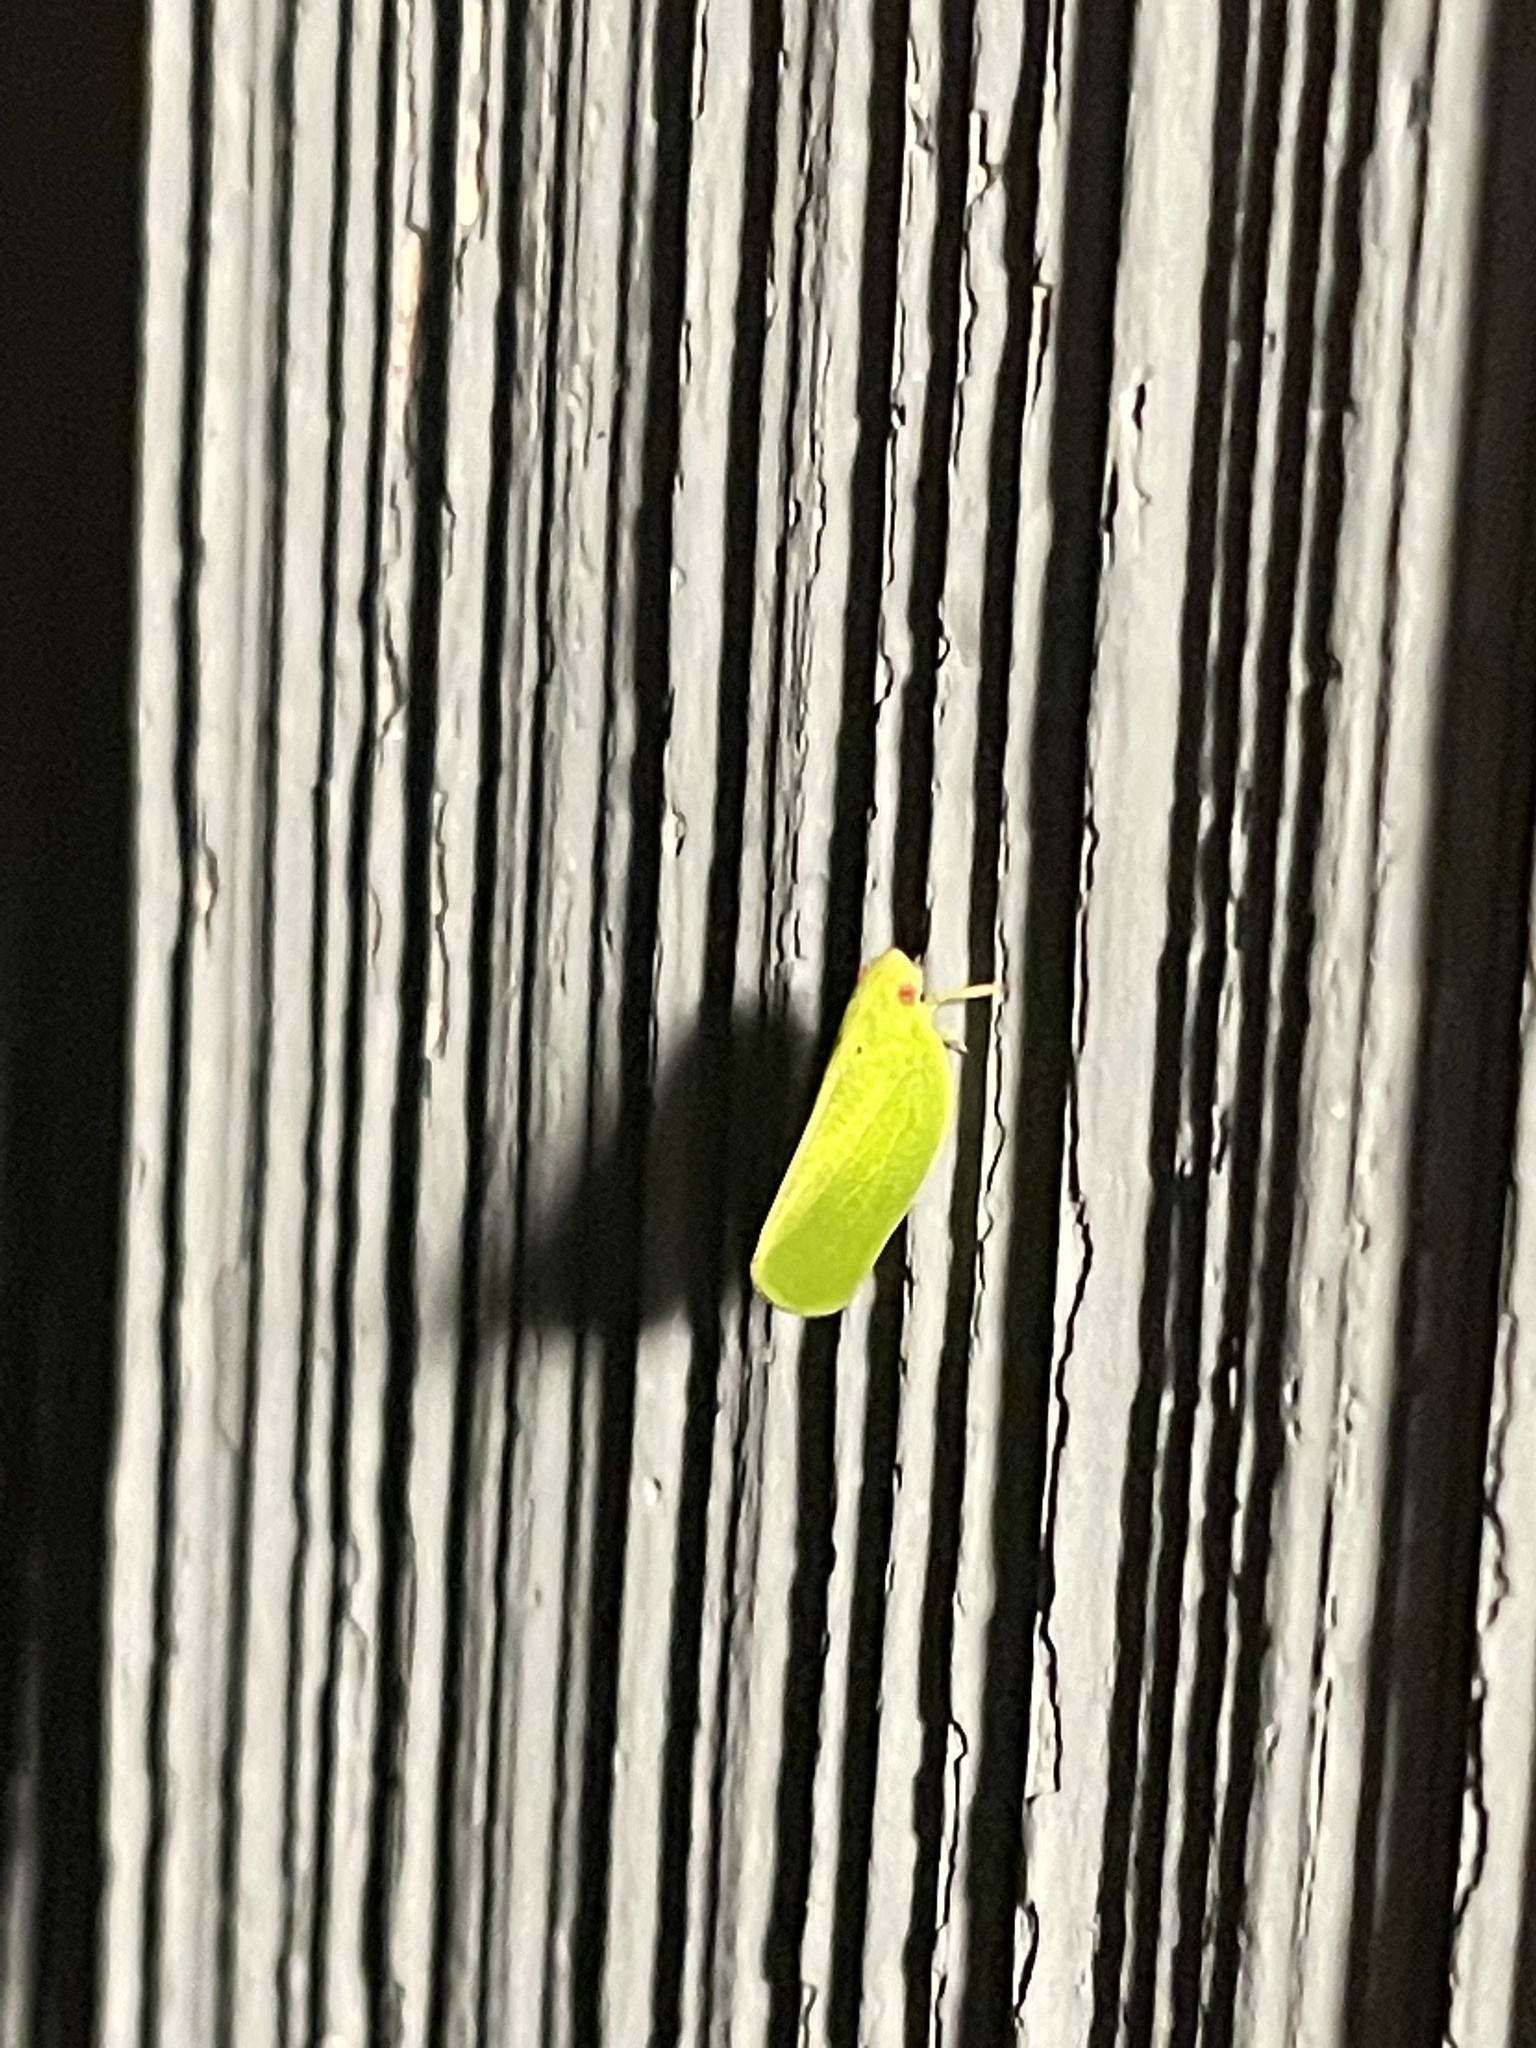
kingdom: Animalia
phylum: Arthropoda
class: Insecta
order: Hemiptera
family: Acanaloniidae
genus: Acanalonia
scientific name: Acanalonia conica
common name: Green cone-headed planthopper
